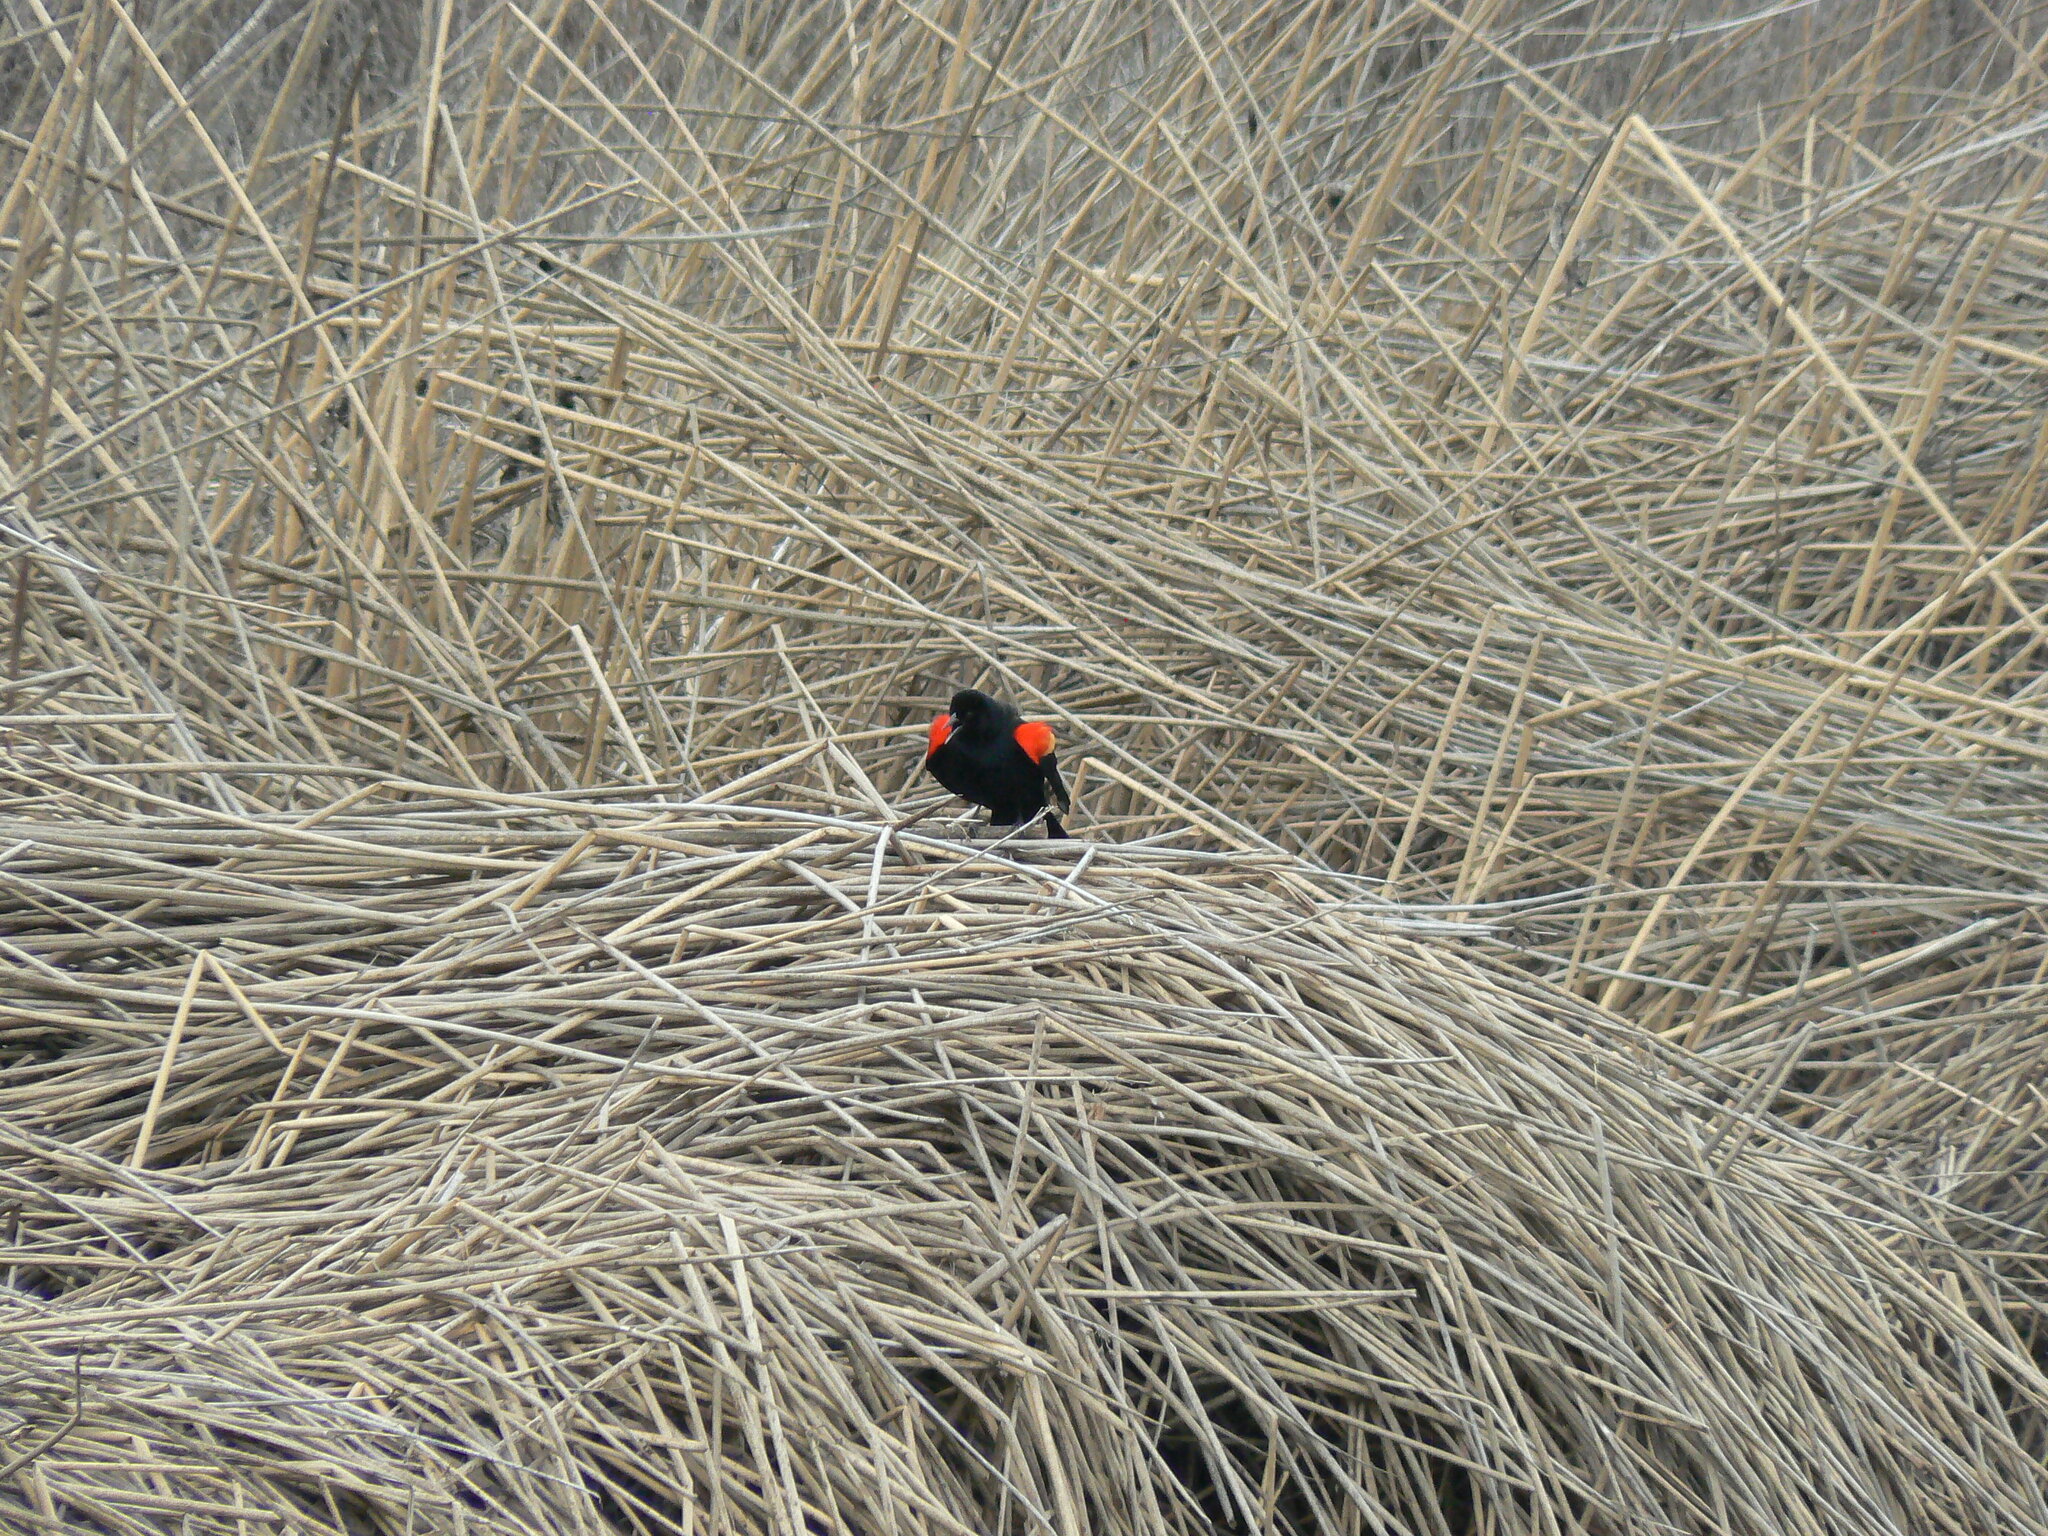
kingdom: Animalia
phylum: Chordata
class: Aves
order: Passeriformes
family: Icteridae
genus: Agelaius
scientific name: Agelaius phoeniceus
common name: Red-winged blackbird
